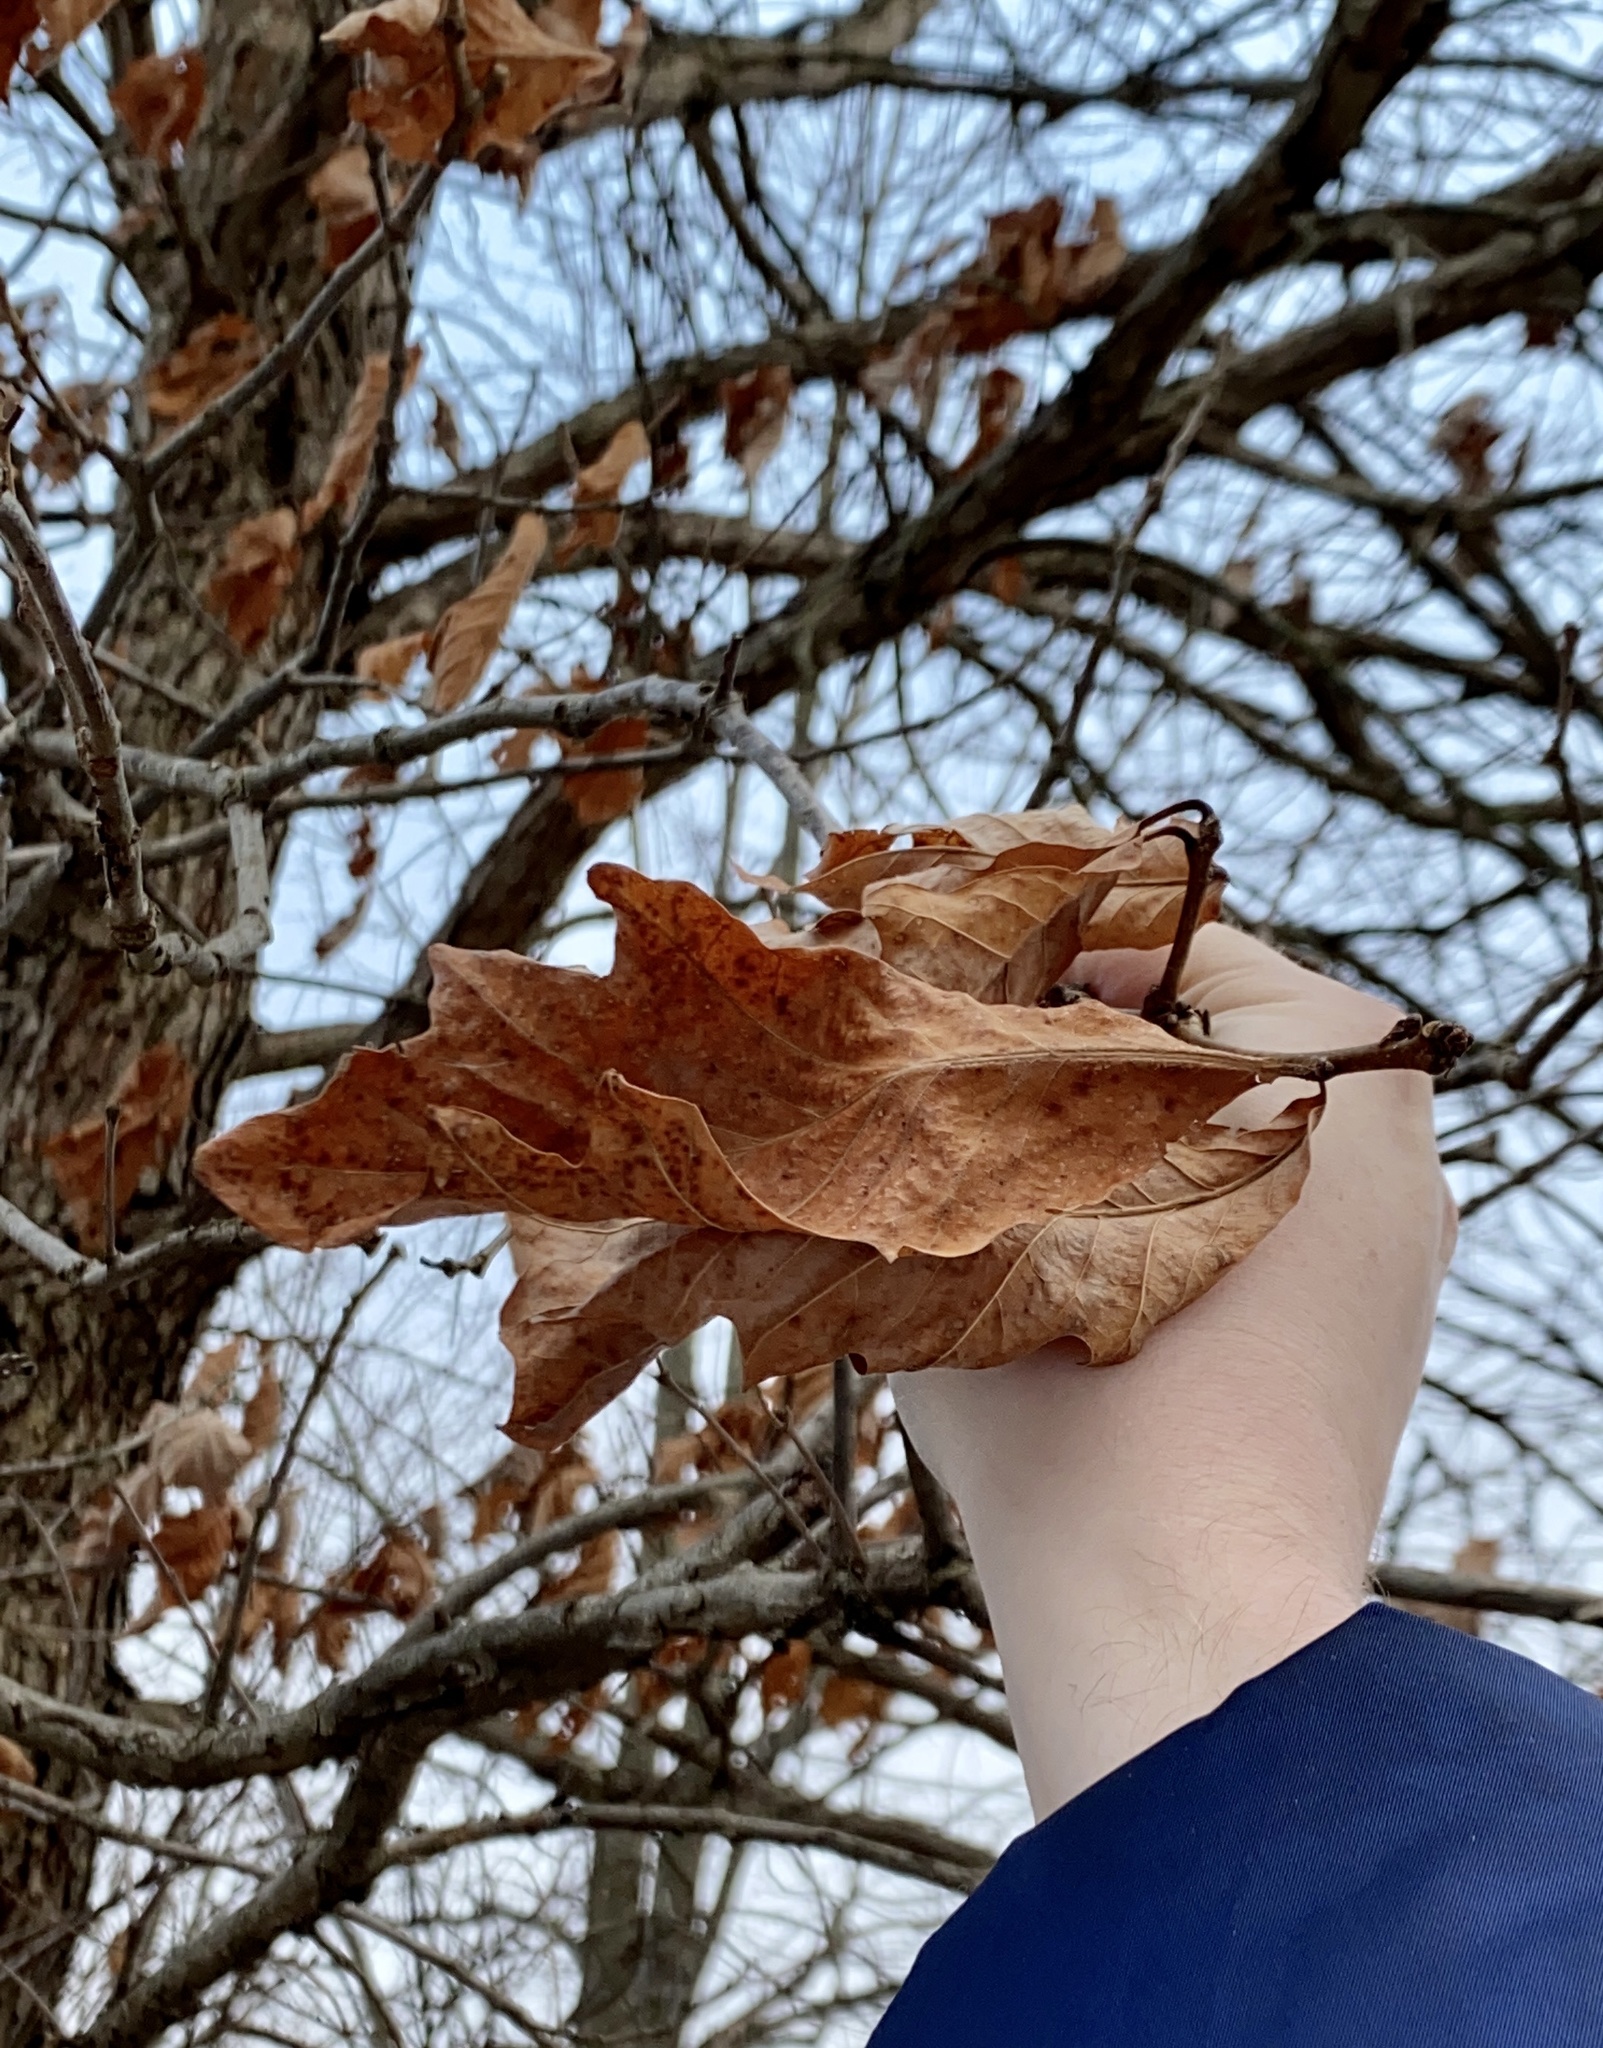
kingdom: Plantae
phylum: Tracheophyta
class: Magnoliopsida
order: Fagales
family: Fagaceae
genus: Quercus
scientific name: Quercus bicolor
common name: Swamp white oak
